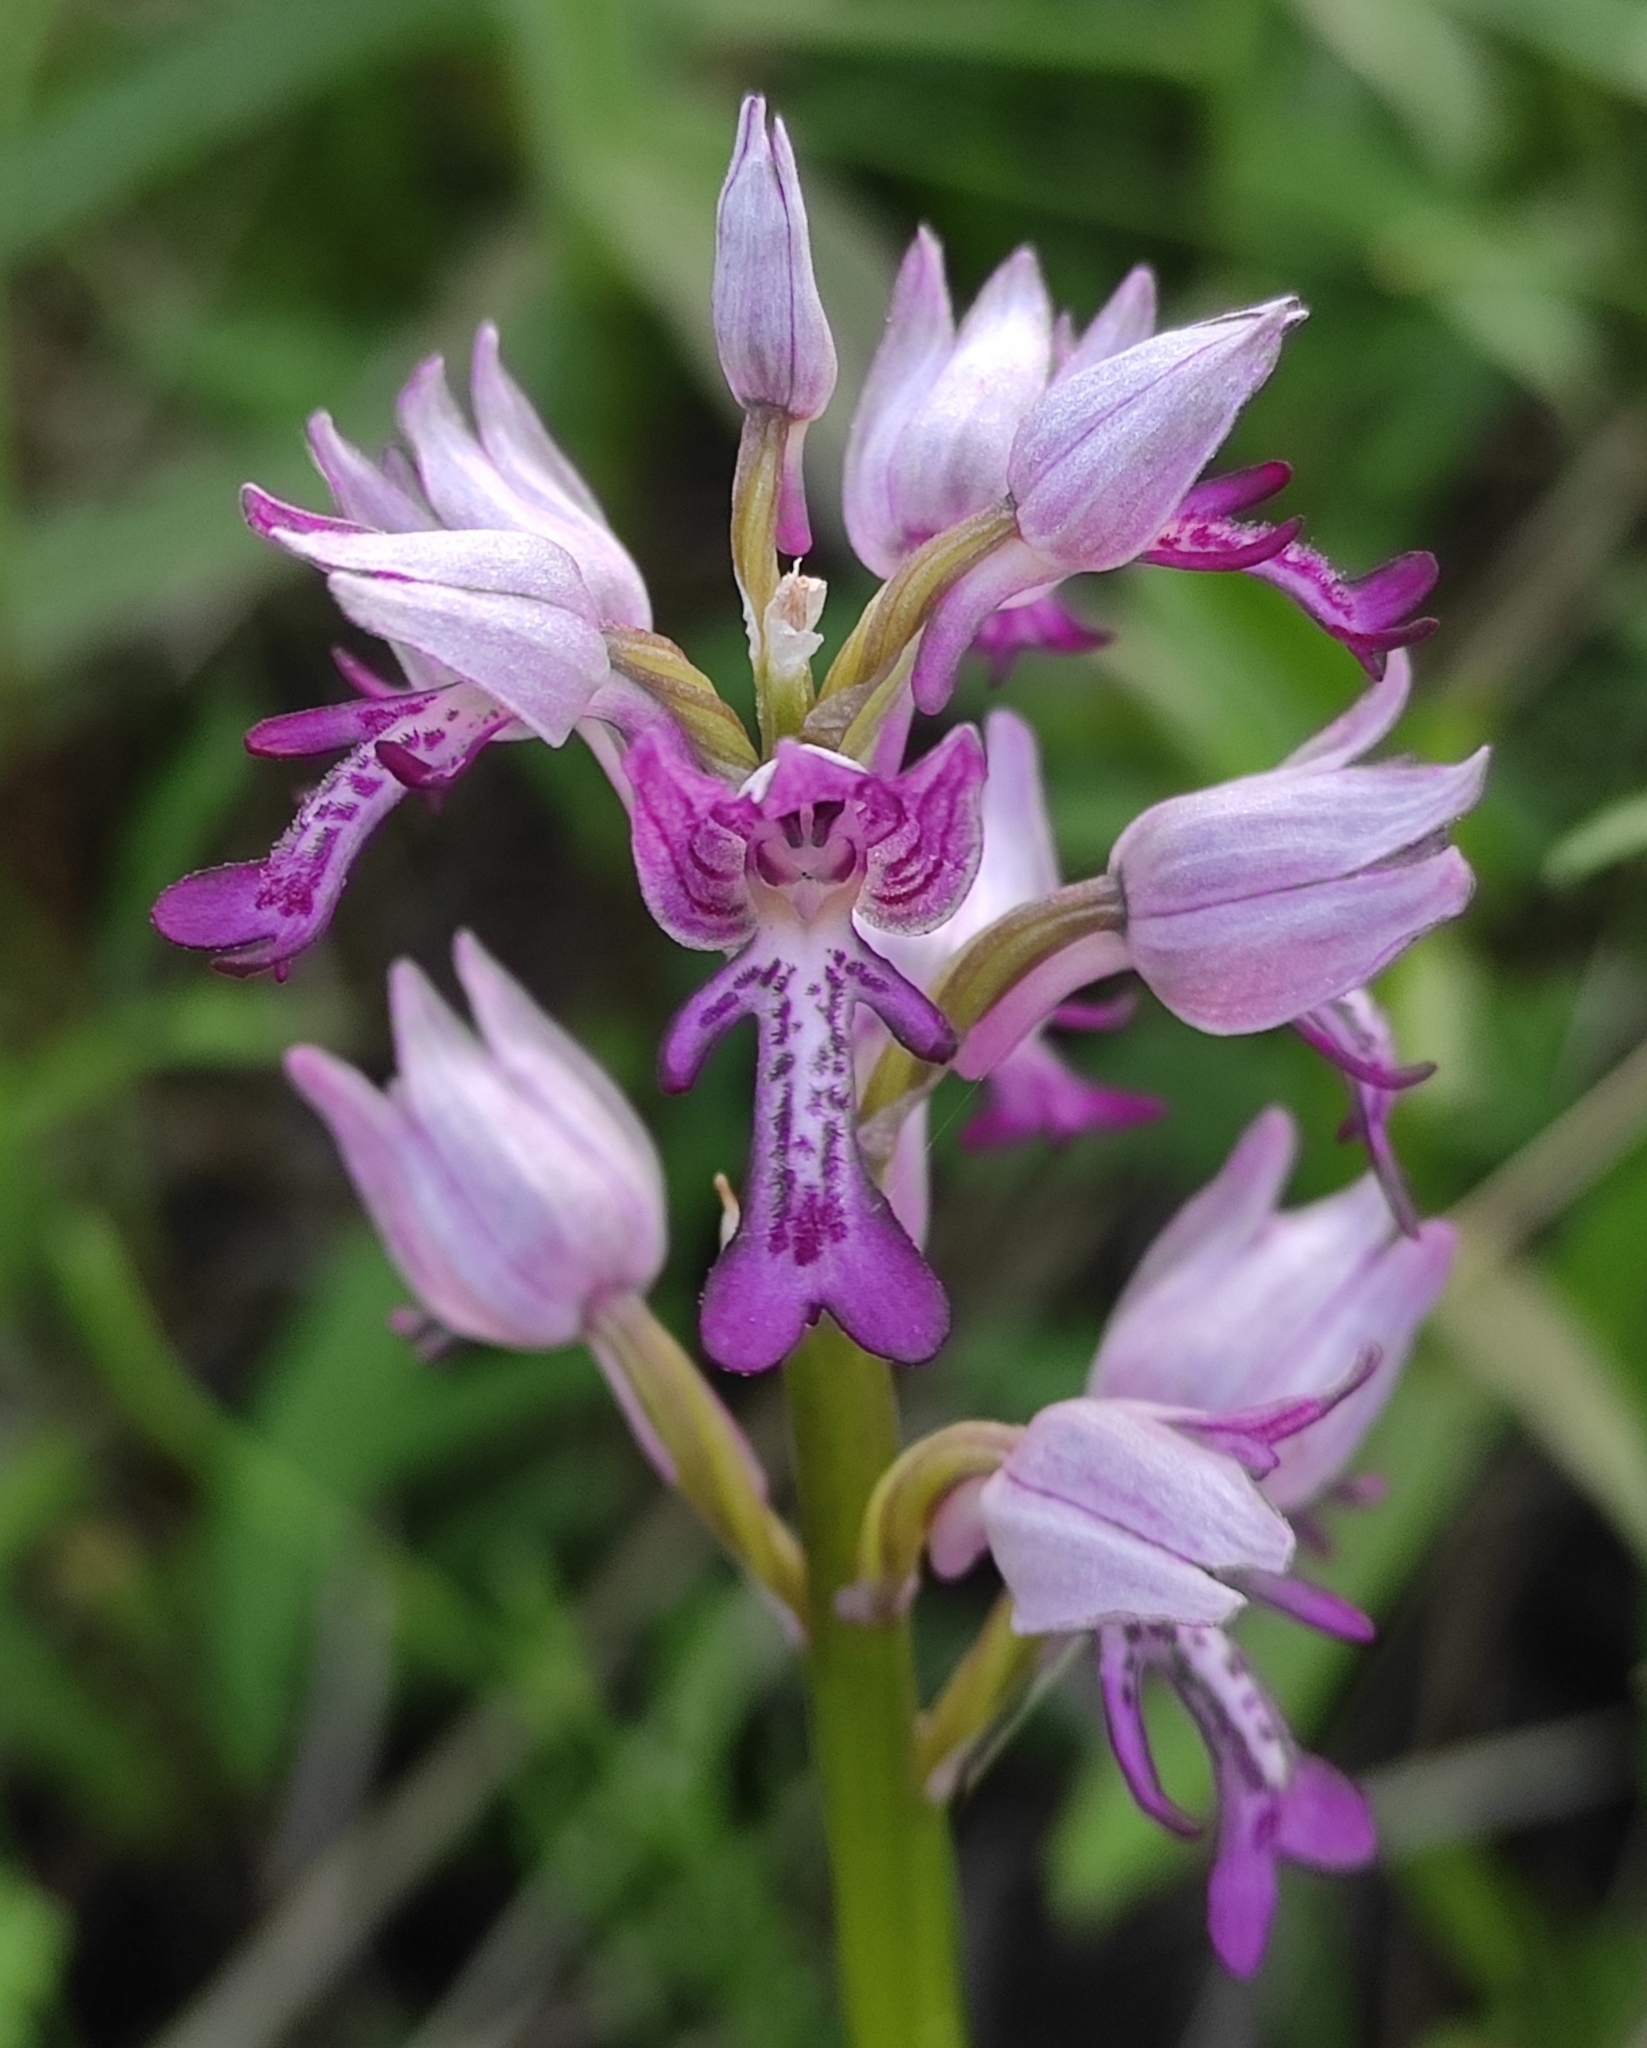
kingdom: Plantae
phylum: Tracheophyta
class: Liliopsida
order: Asparagales
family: Orchidaceae
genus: Orchis
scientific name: Orchis militaris
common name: Military orchid
